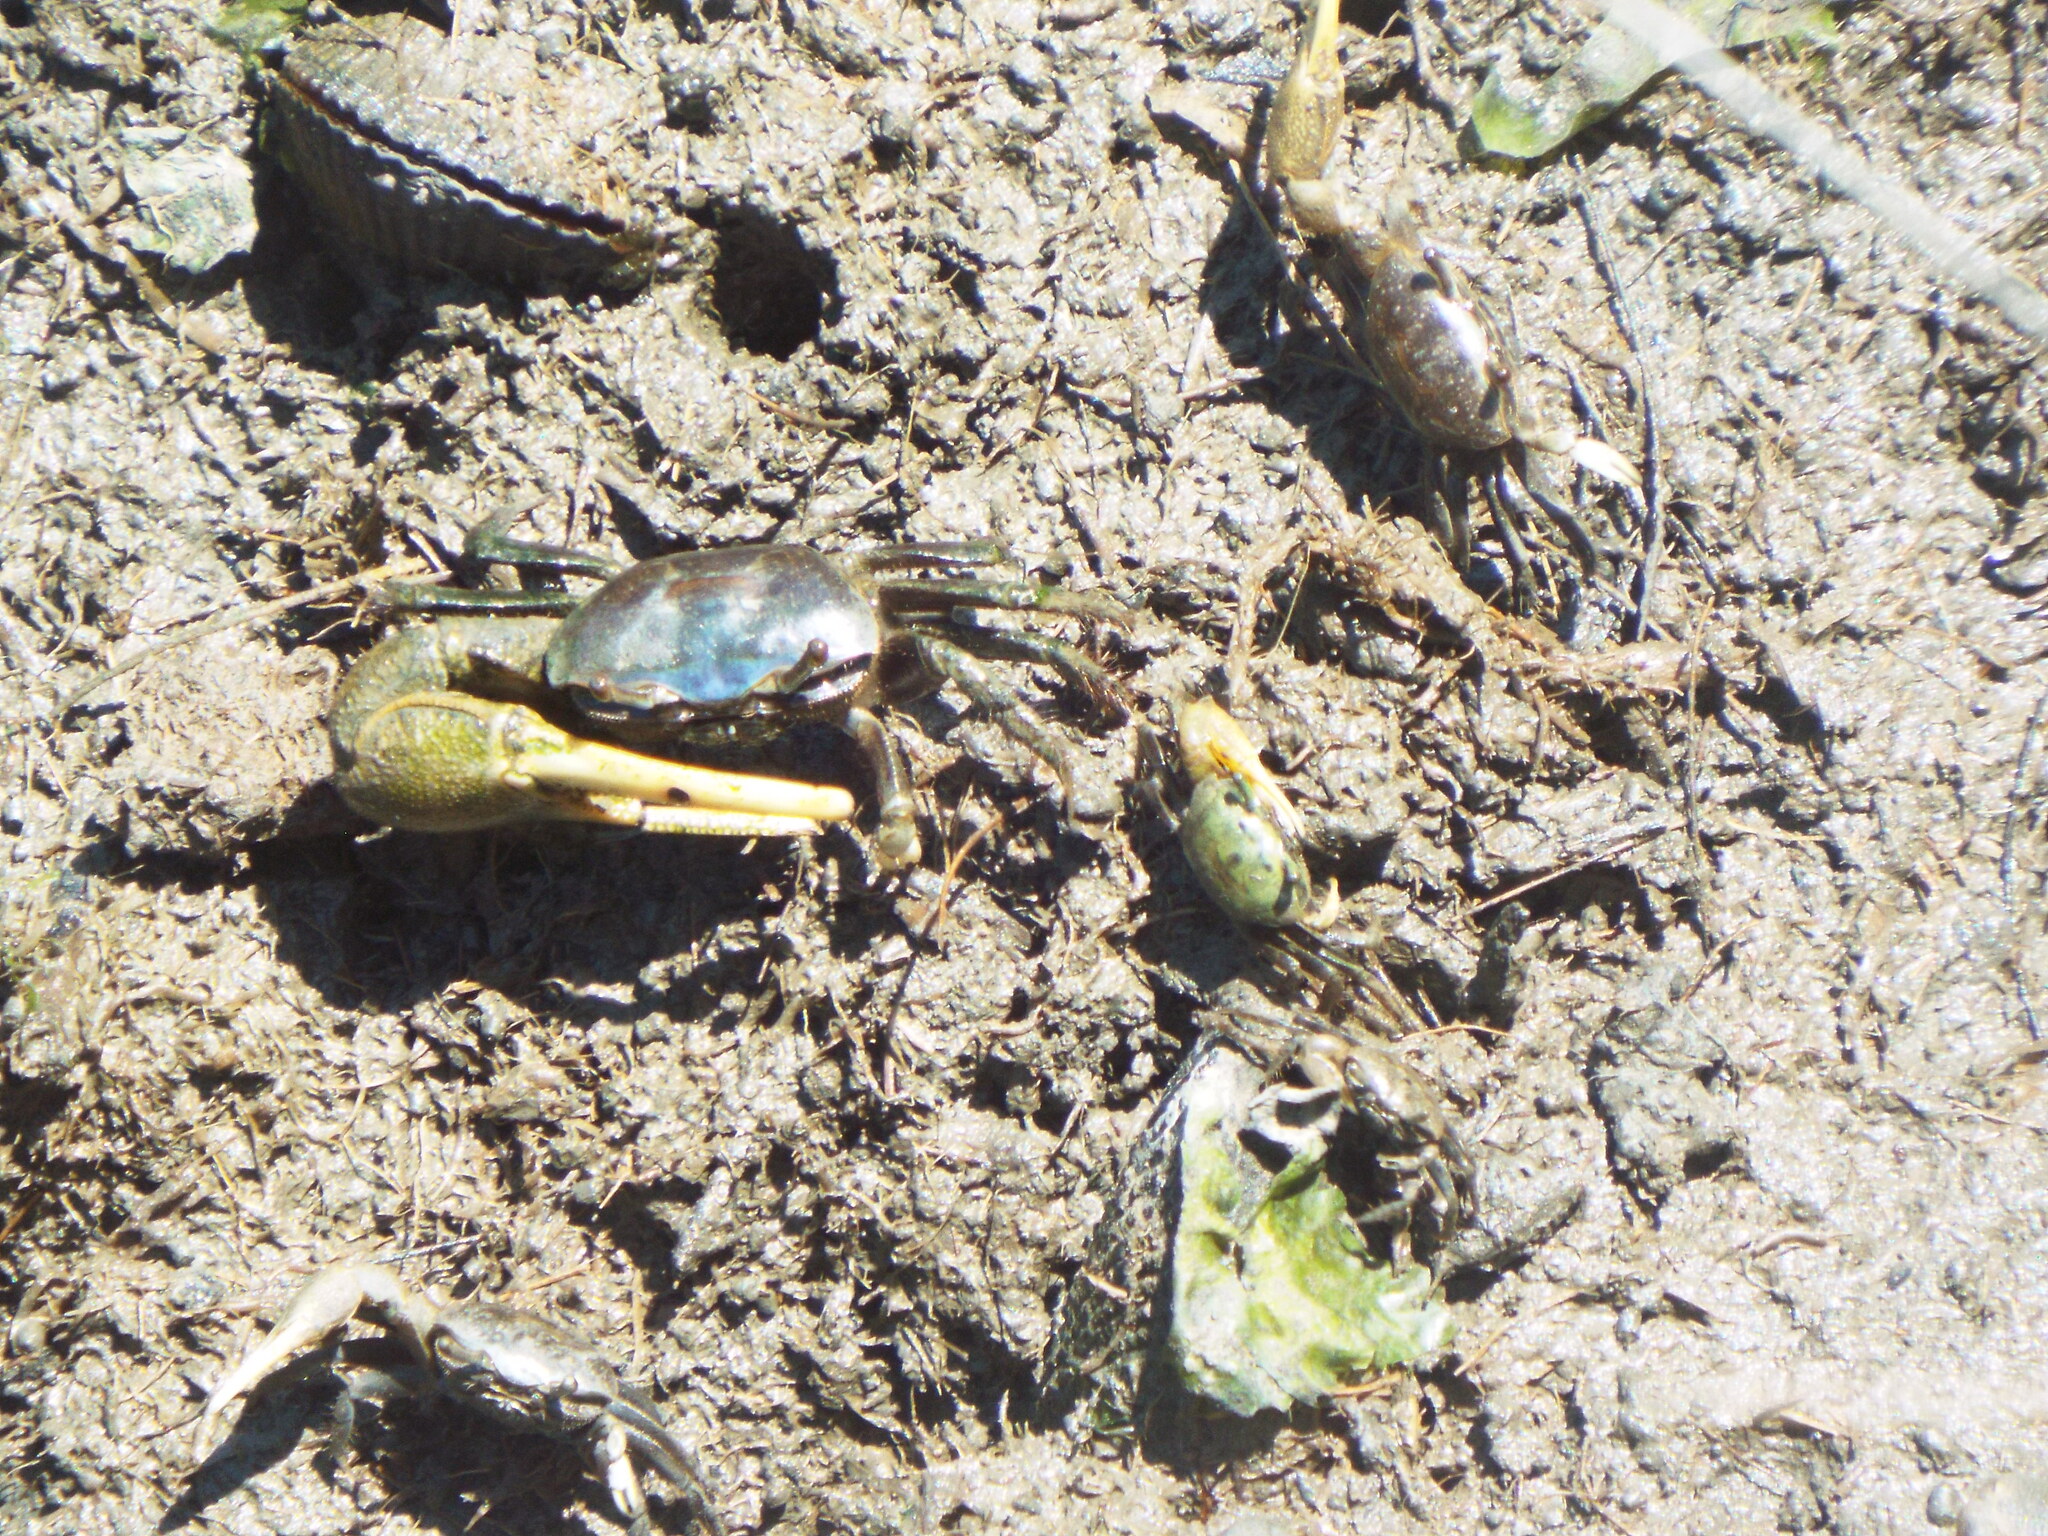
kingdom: Animalia
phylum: Arthropoda
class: Malacostraca
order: Decapoda
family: Ocypodidae
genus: Minuca
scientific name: Minuca pugnax
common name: Mud fiddler crab
